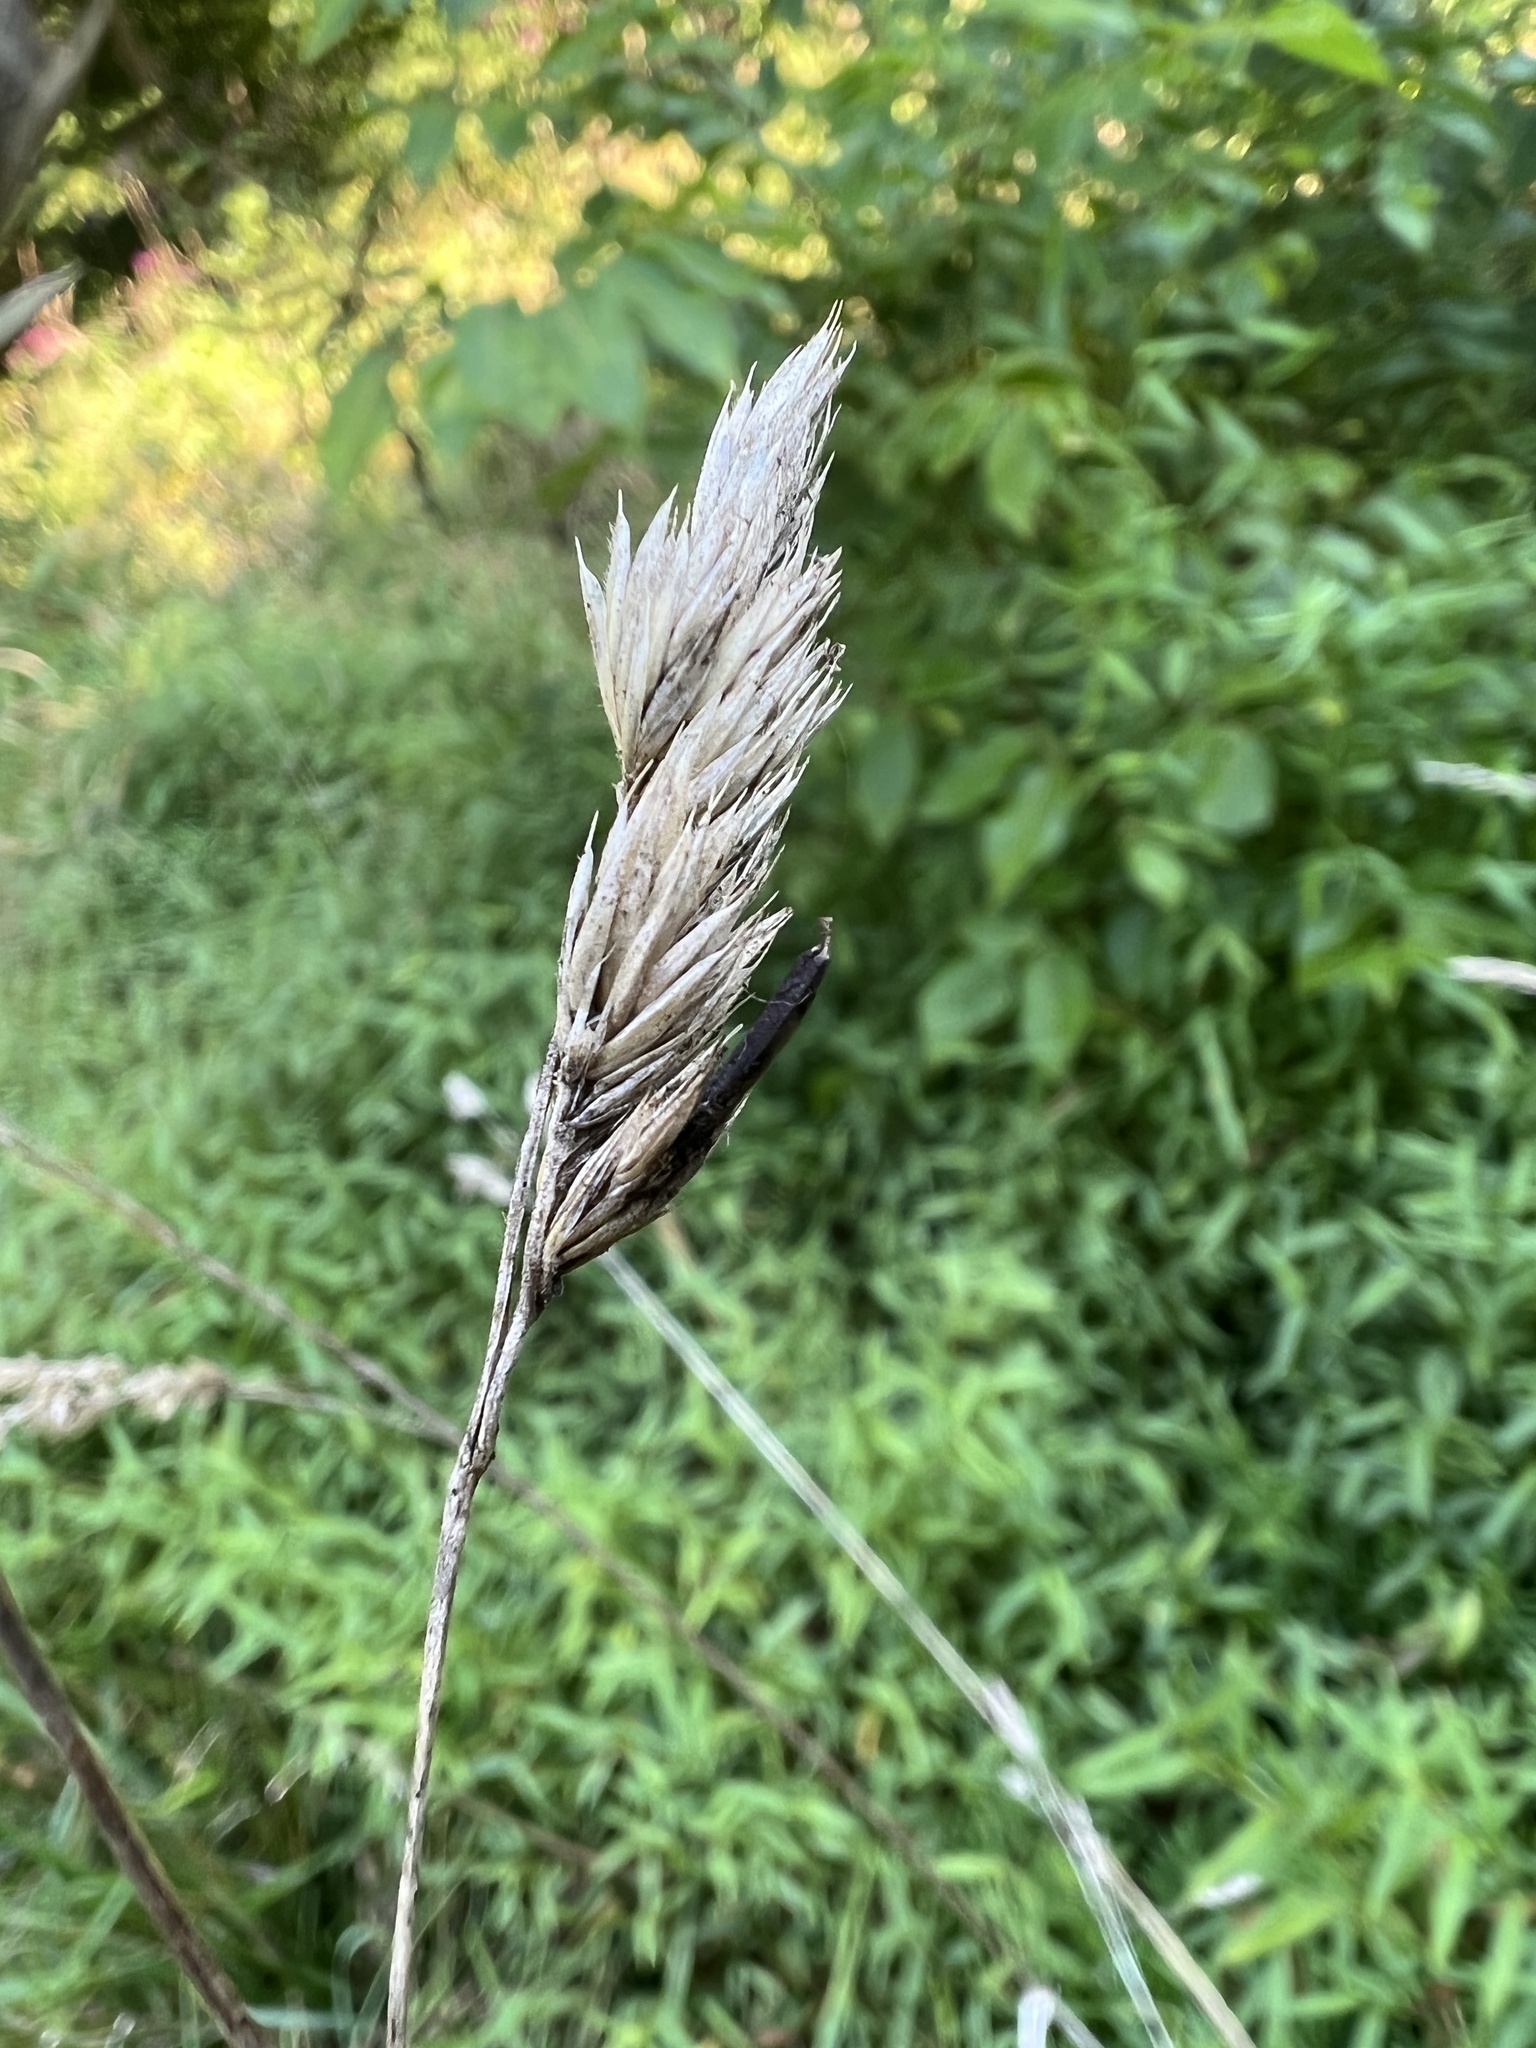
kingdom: Fungi
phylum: Ascomycota
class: Sordariomycetes
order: Hypocreales
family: Clavicipitaceae
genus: Claviceps
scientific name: Claviceps arundinis
